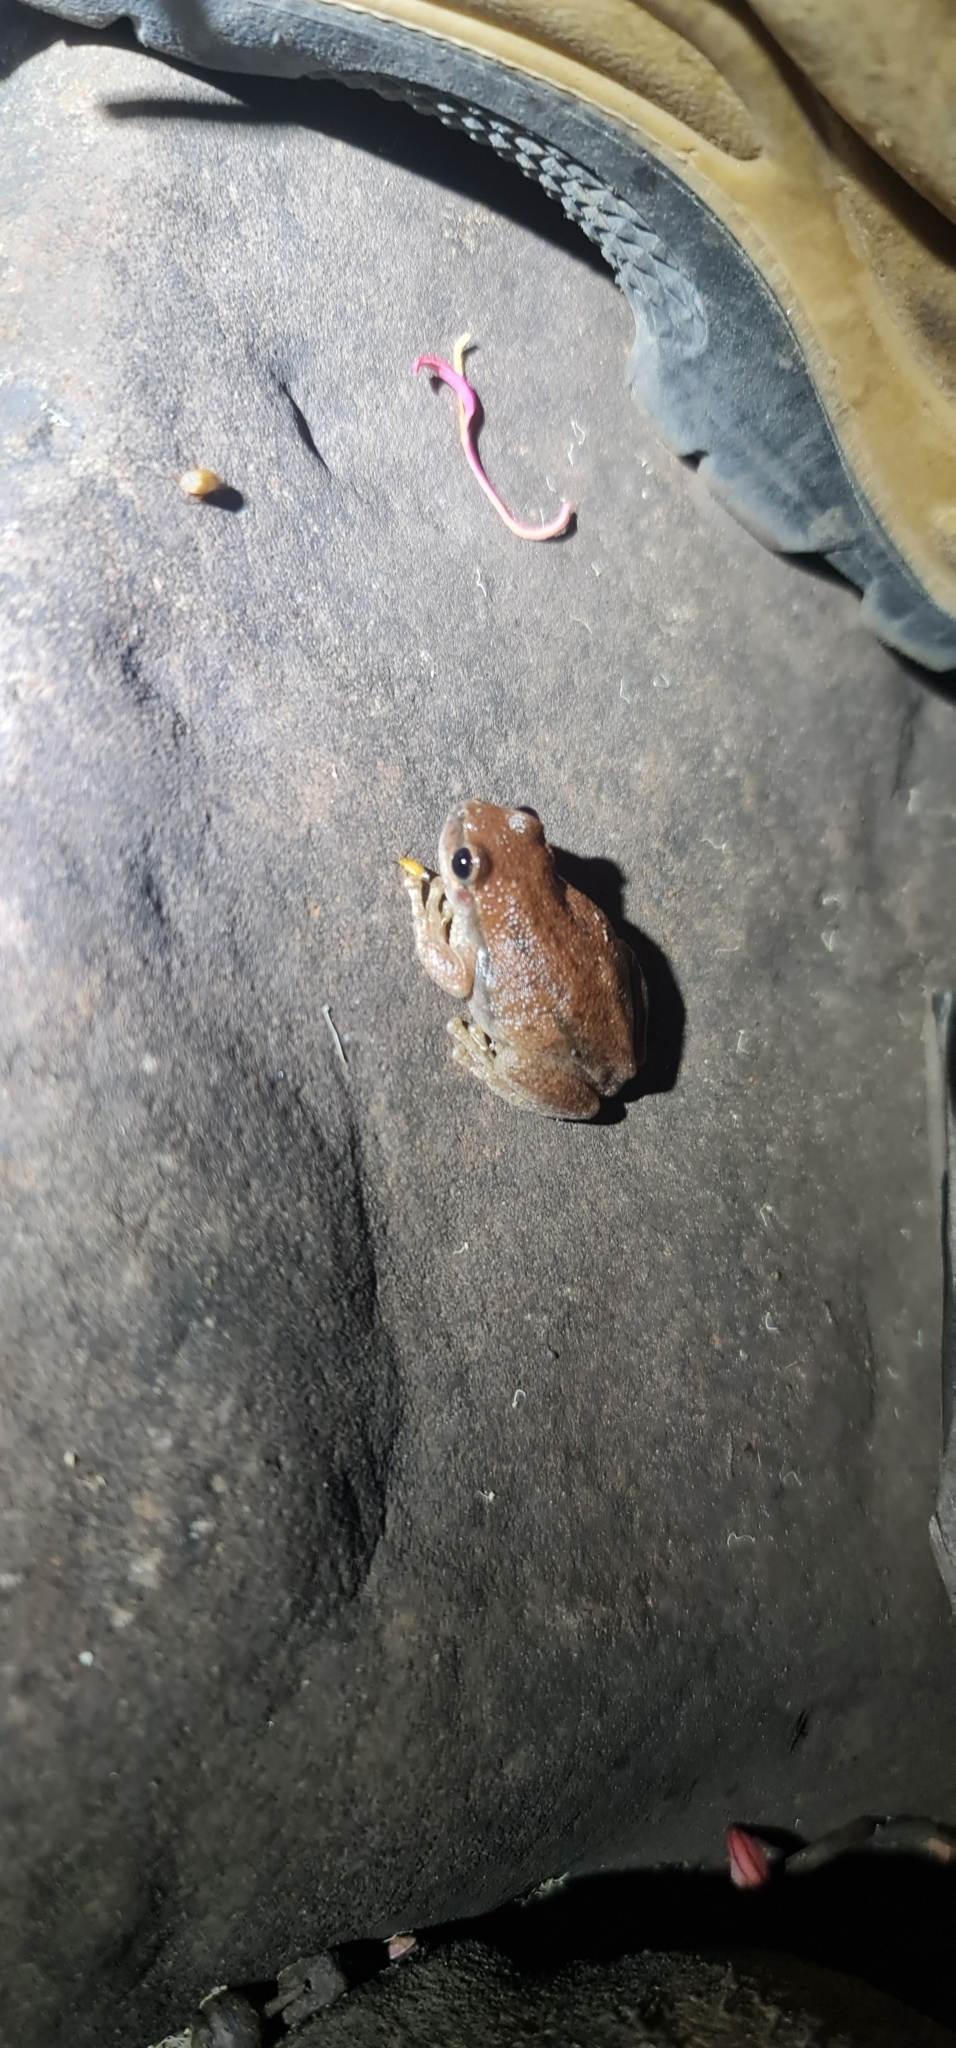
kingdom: Animalia
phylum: Chordata
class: Amphibia
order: Anura
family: Pelodryadidae
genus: Litoria
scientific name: Litoria rubella
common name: Desert tree frog
